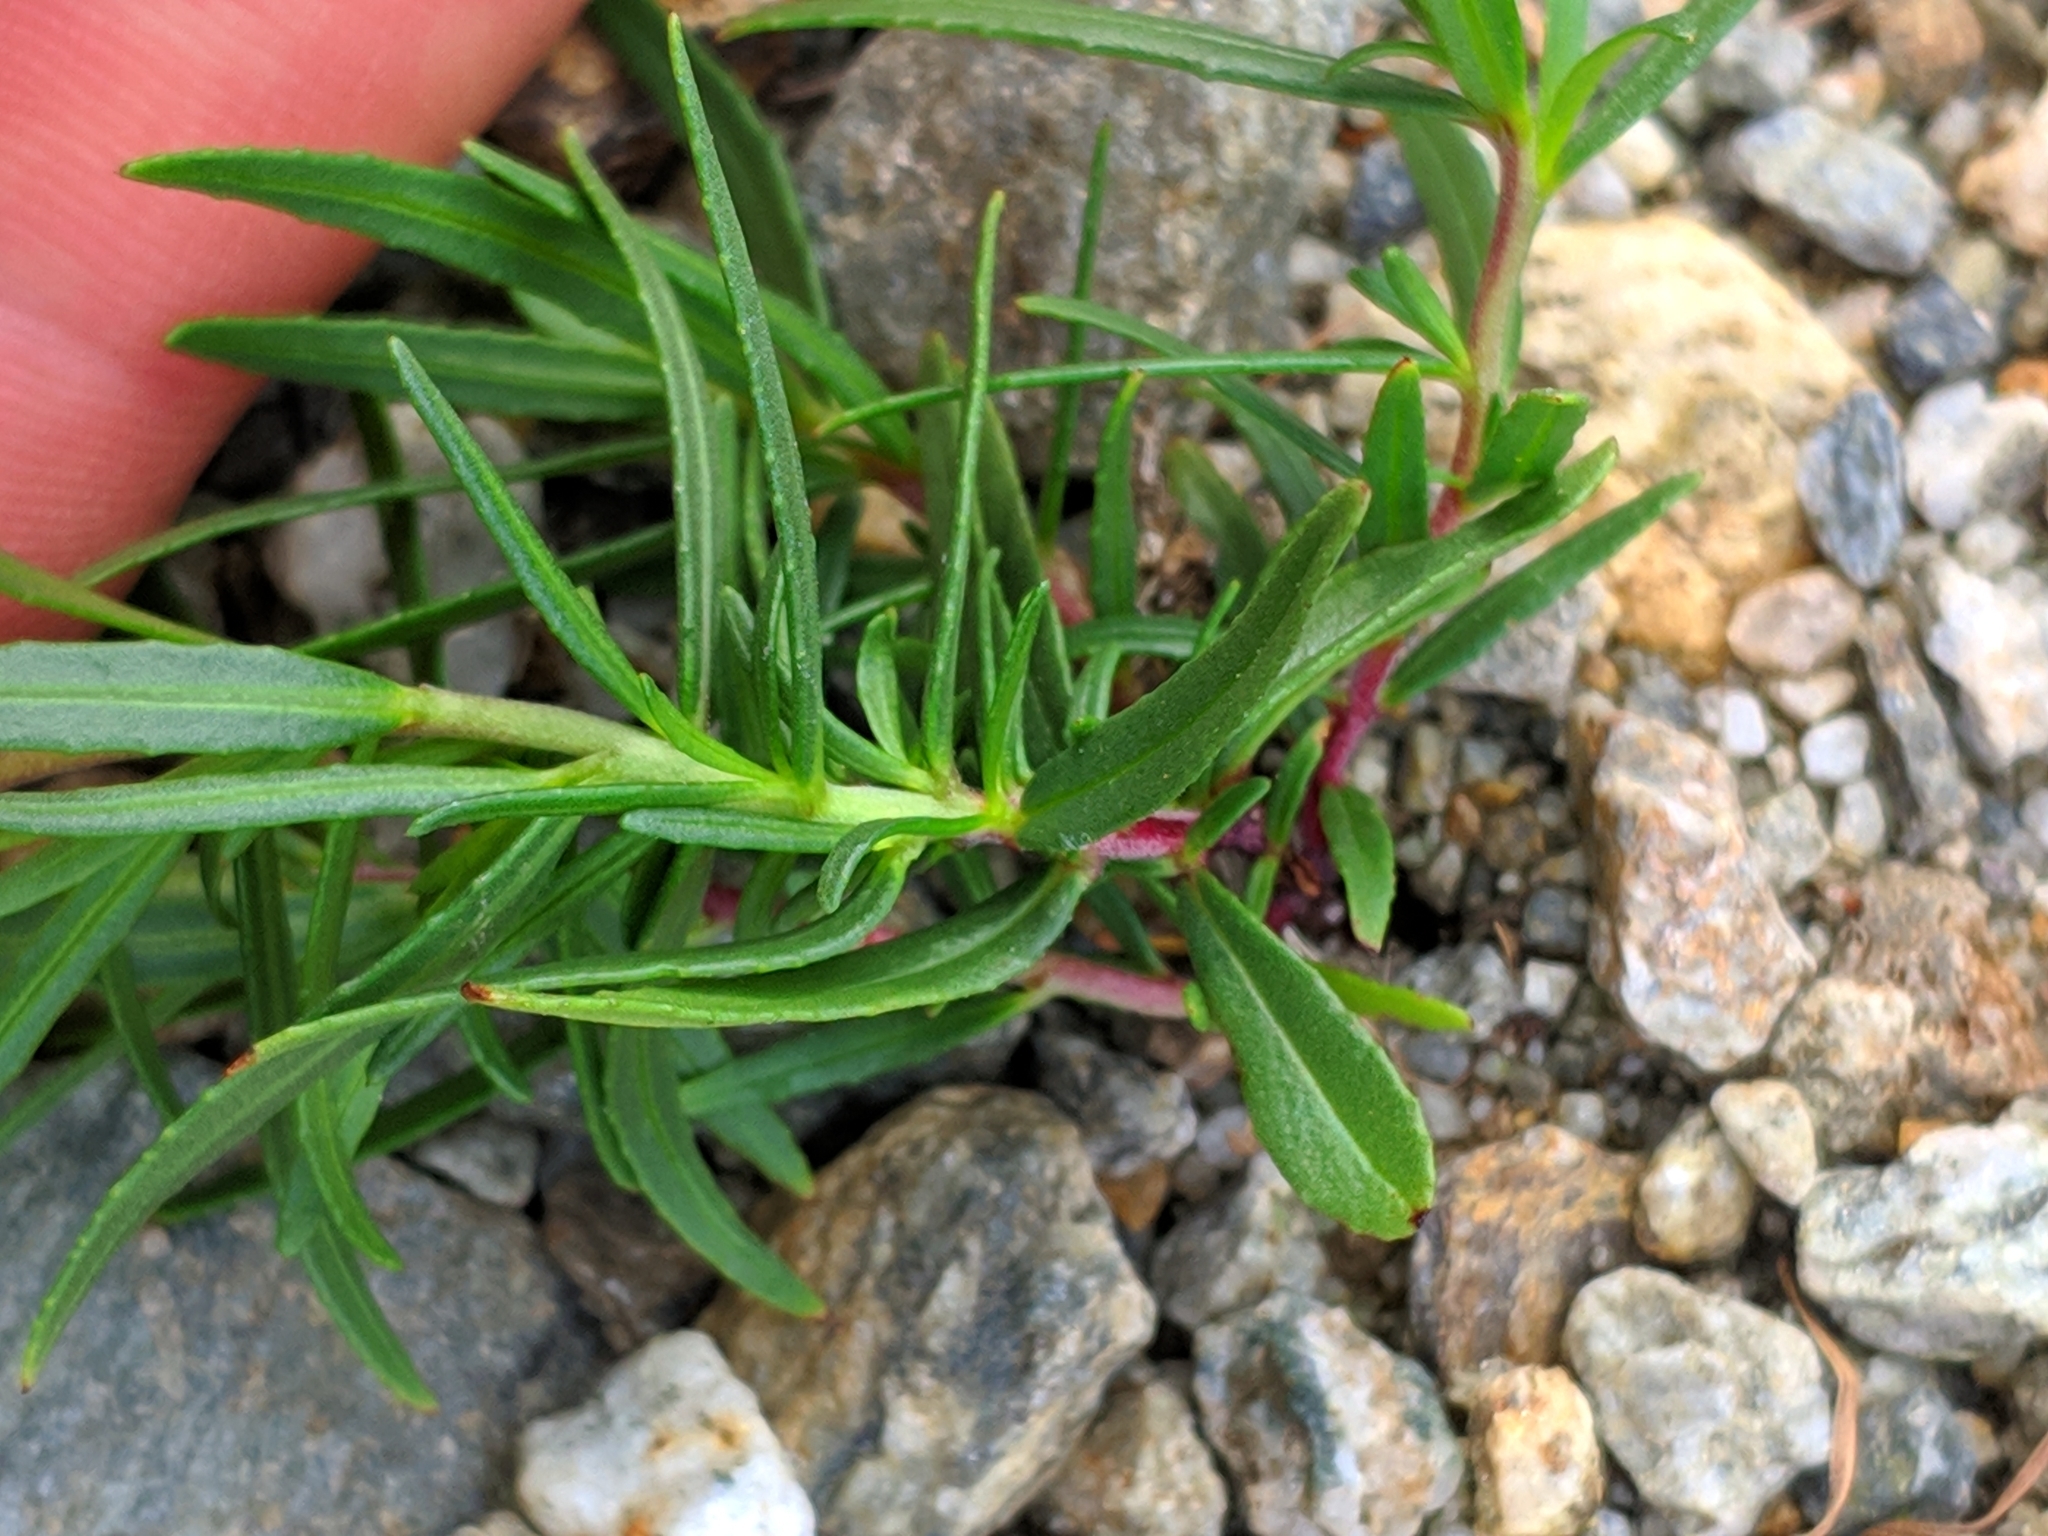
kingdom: Plantae
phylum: Tracheophyta
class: Magnoliopsida
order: Myrtales
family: Onagraceae
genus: Chamaenerion
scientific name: Chamaenerion fleischeri
